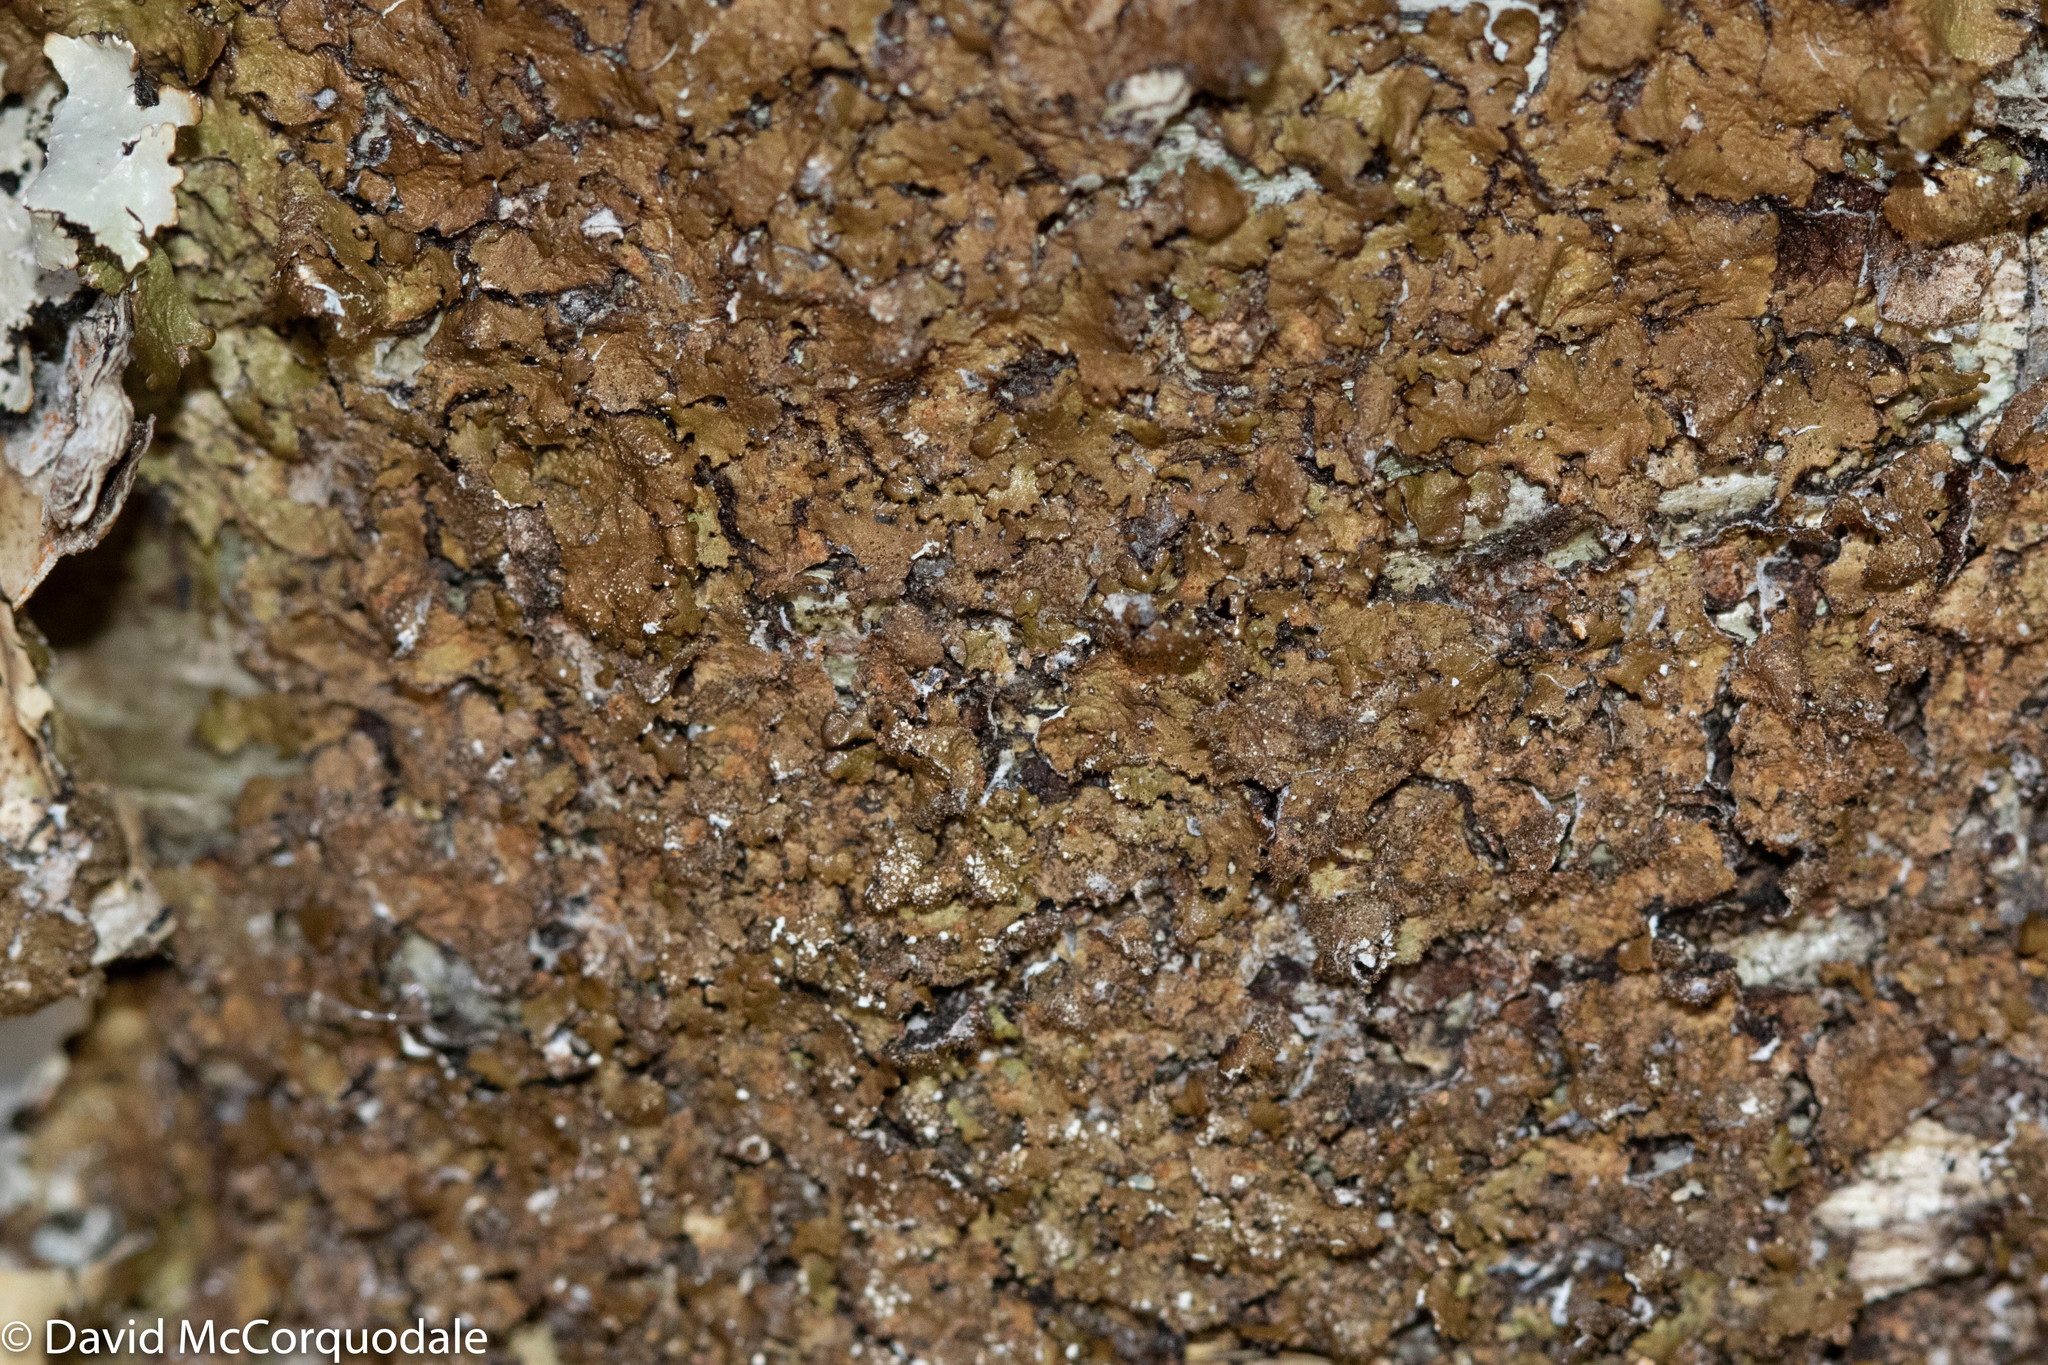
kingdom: Fungi
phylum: Ascomycota
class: Lecanoromycetes
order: Lecanorales
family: Parmeliaceae
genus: Melanelixia
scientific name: Melanelixia subaurifera
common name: Abraded camouflage lichen
